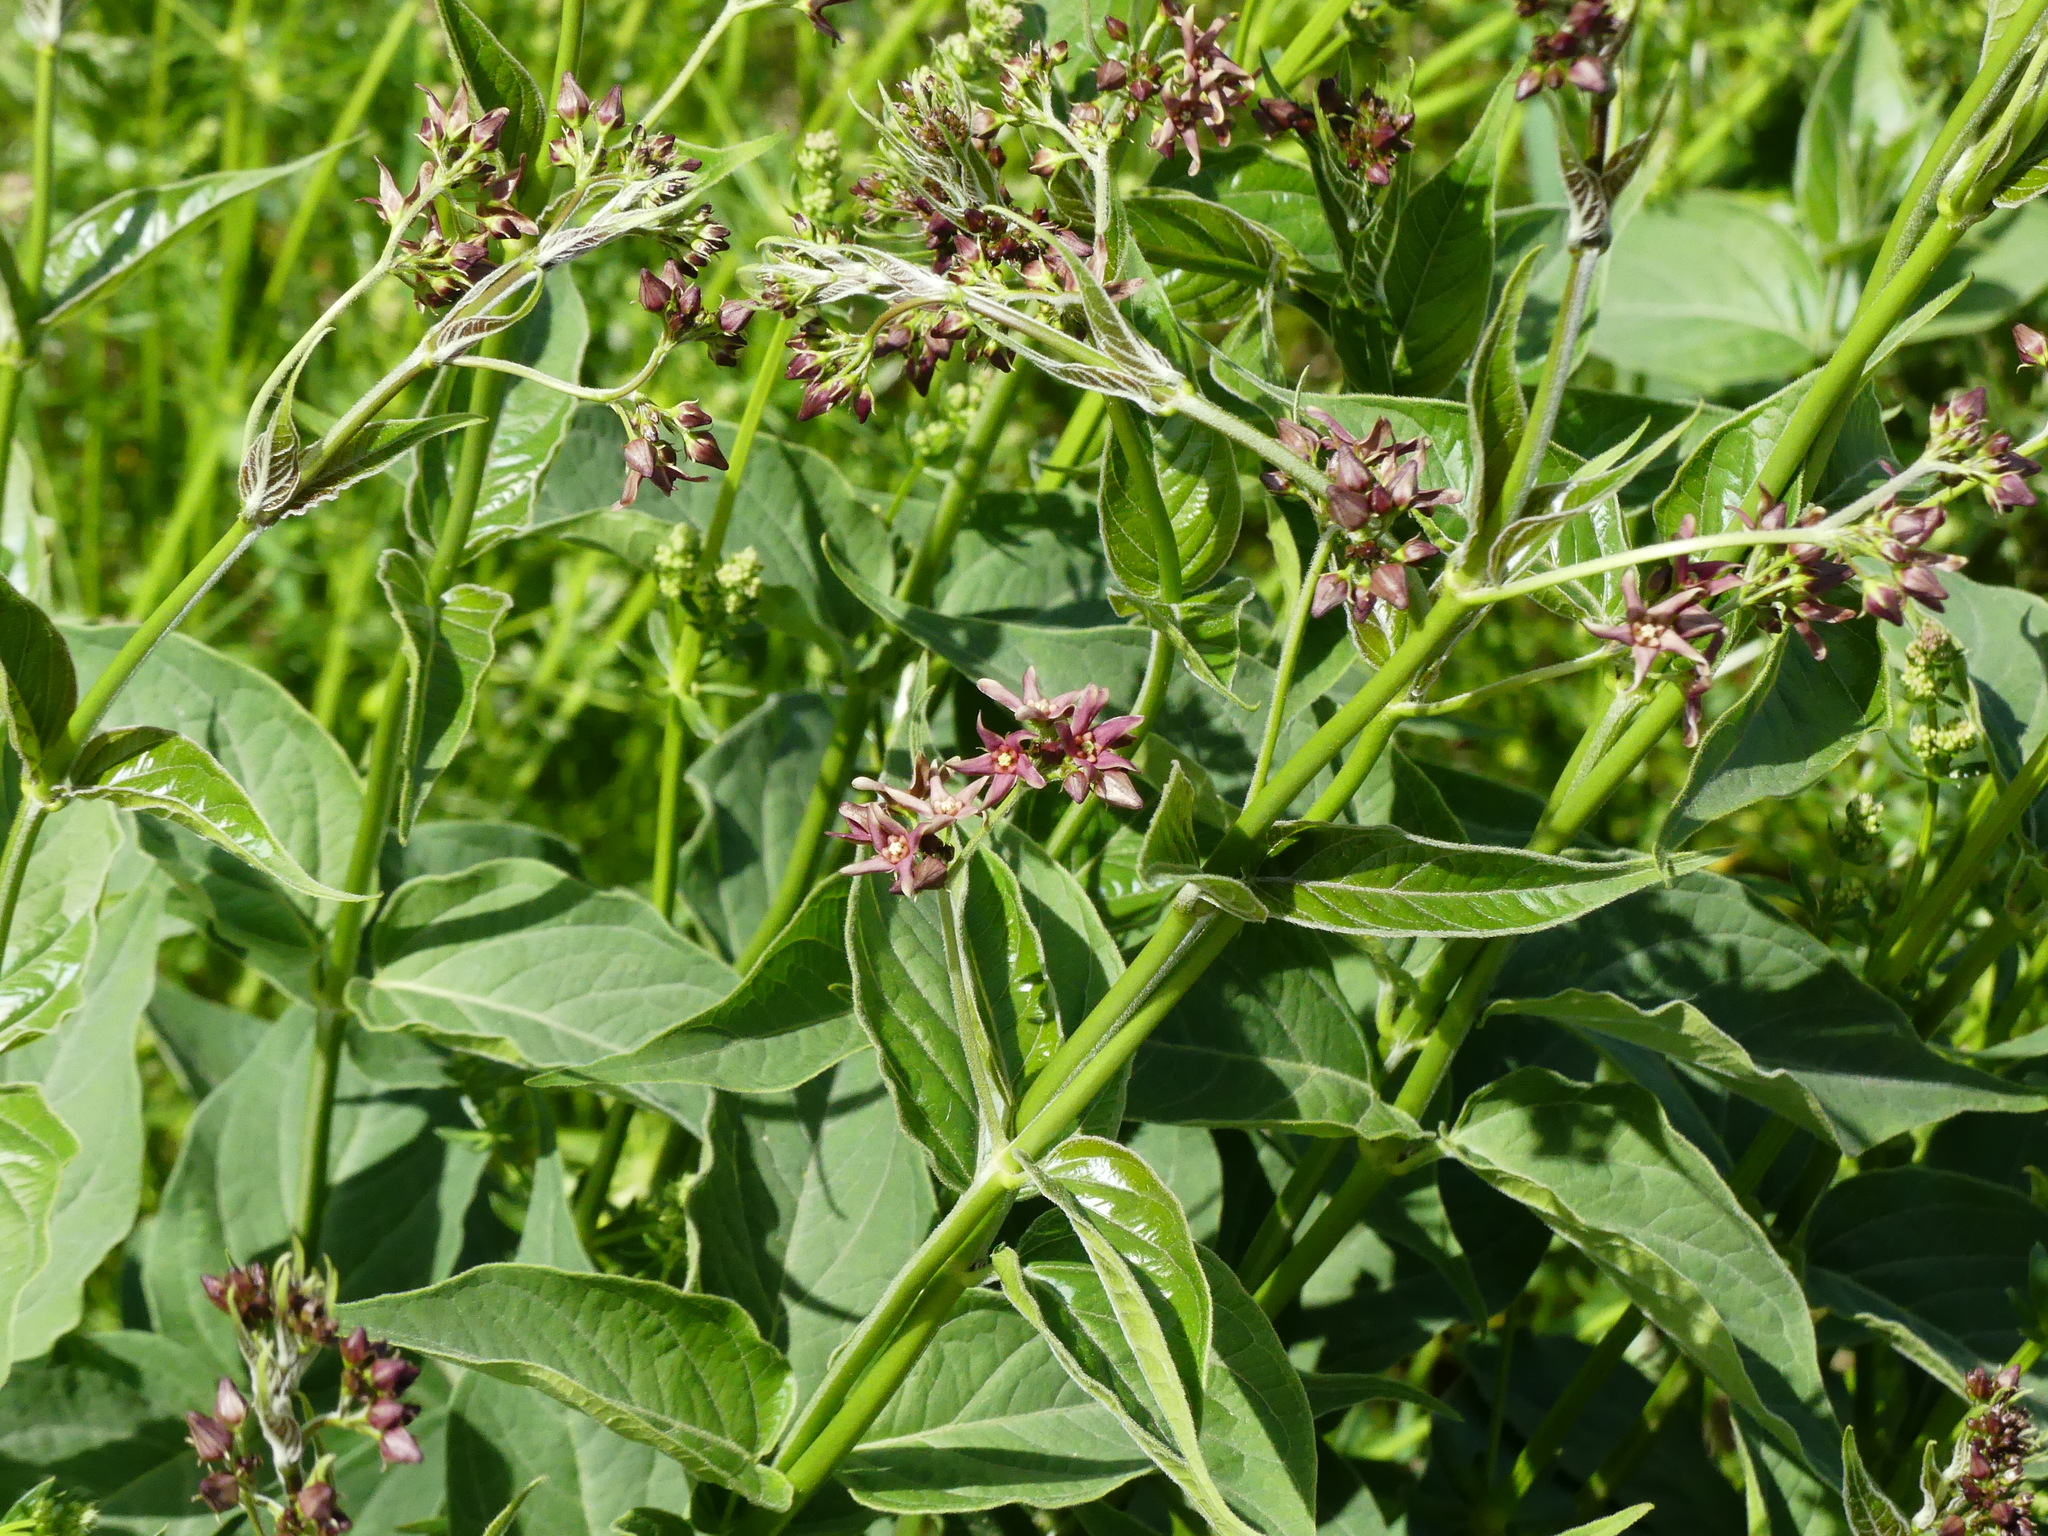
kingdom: Plantae
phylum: Tracheophyta
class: Magnoliopsida
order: Gentianales
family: Apocynaceae
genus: Vincetoxicum
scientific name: Vincetoxicum rossicum
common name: Dog-strangling vine
